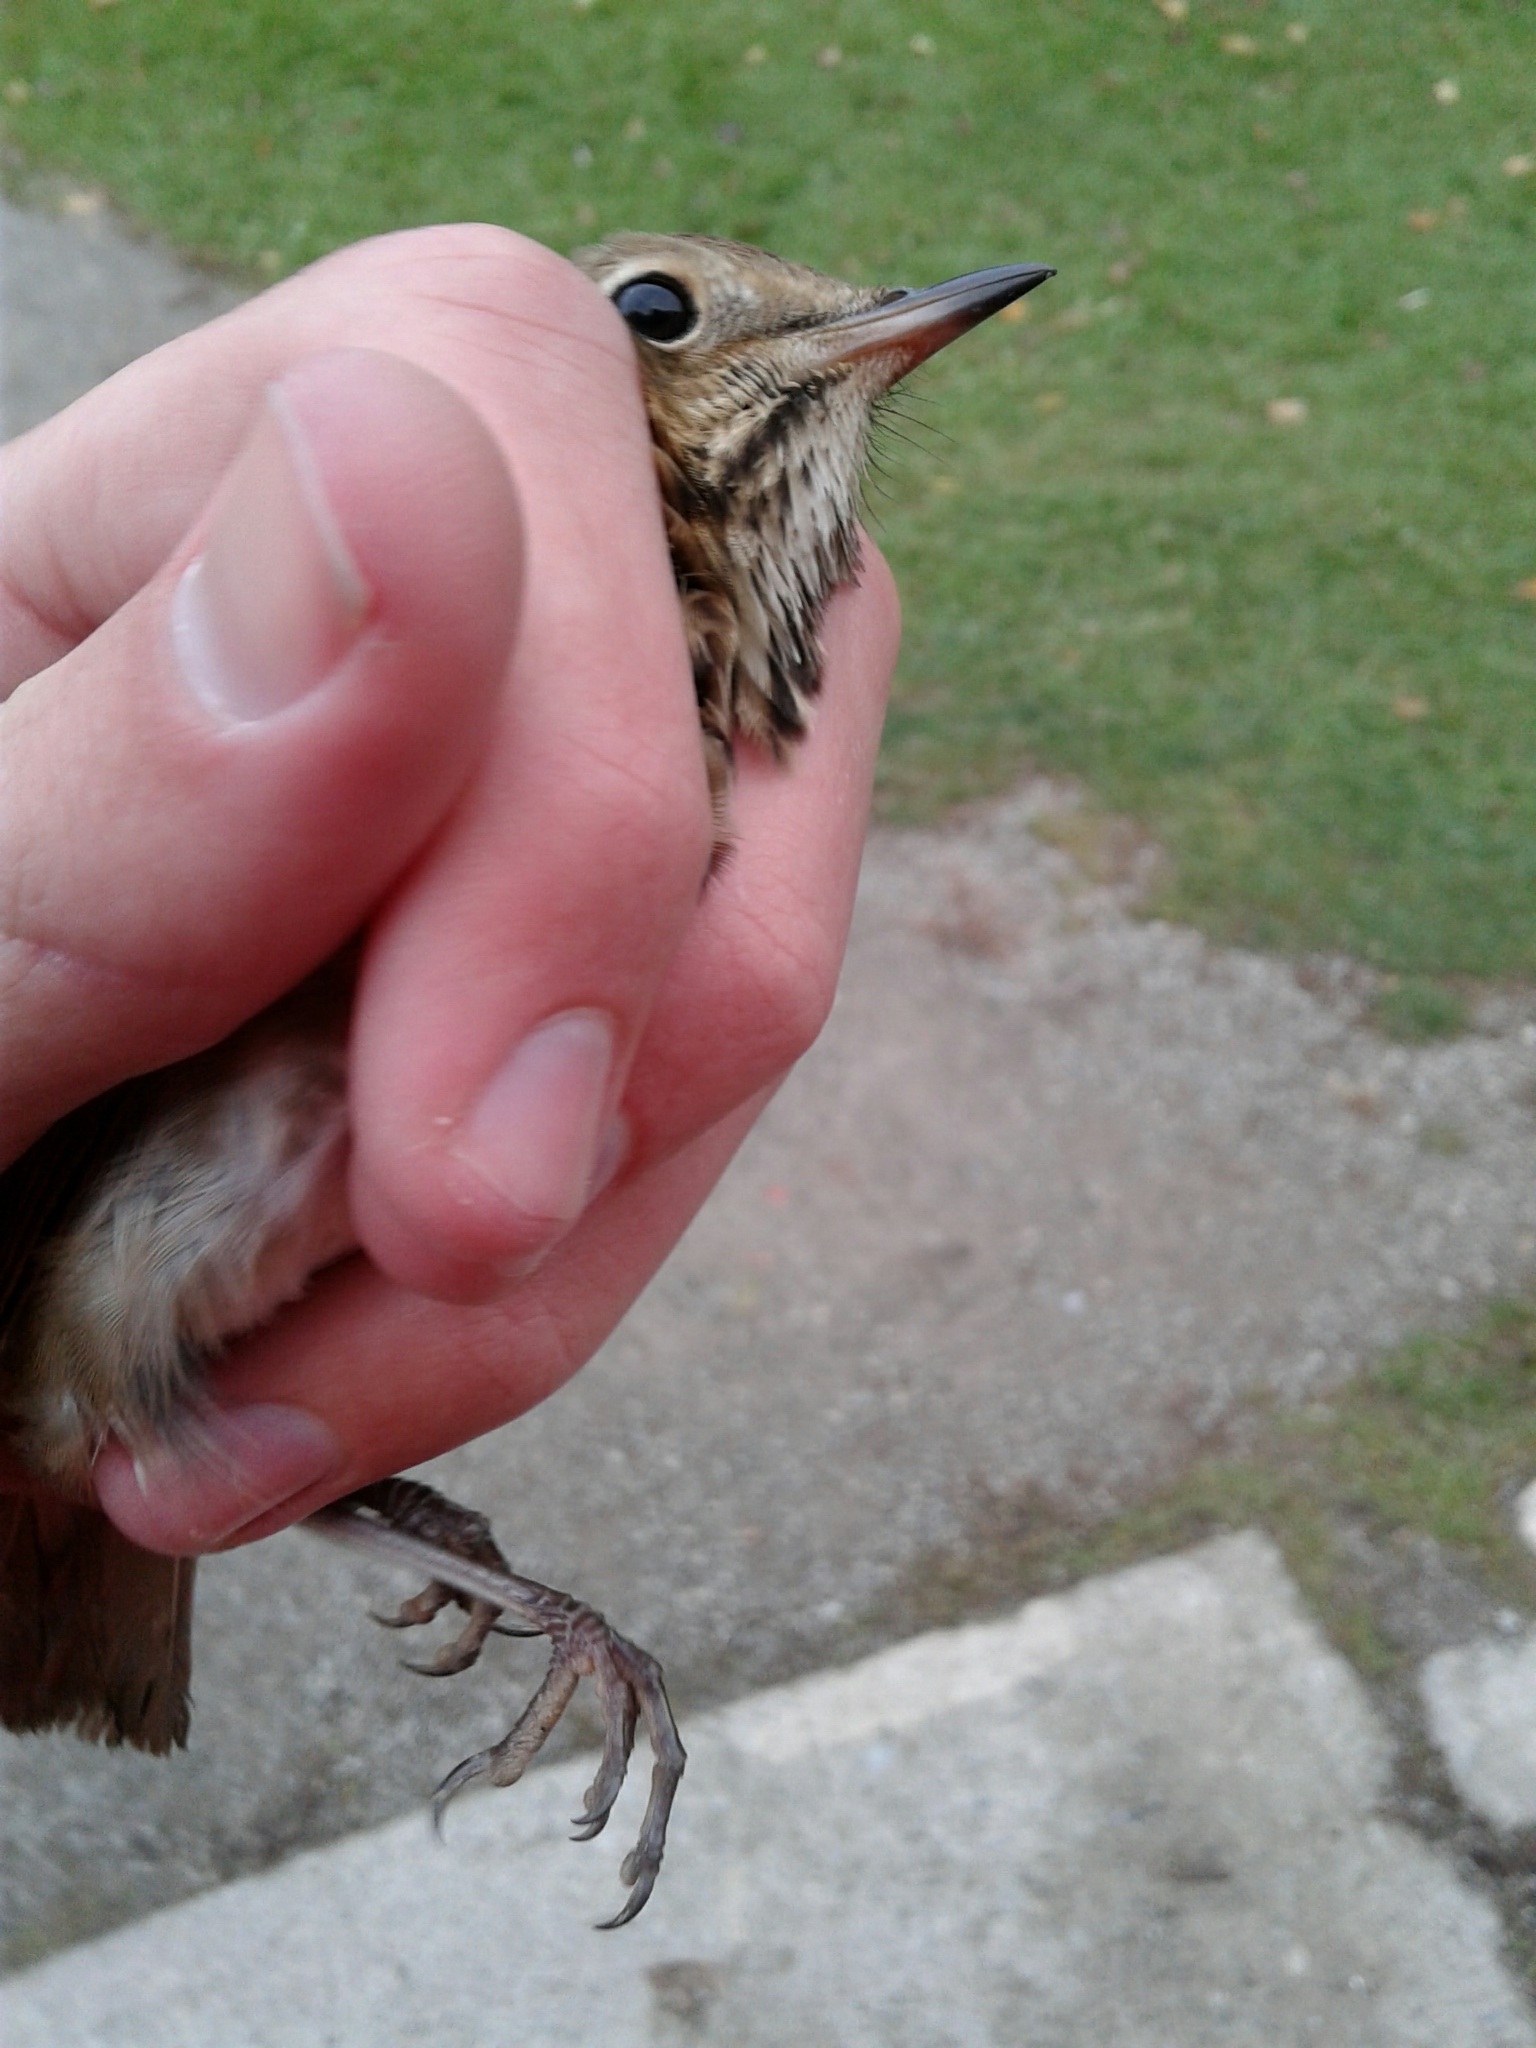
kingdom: Animalia
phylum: Chordata
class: Aves
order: Passeriformes
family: Turdidae
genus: Catharus
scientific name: Catharus guttatus
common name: Hermit thrush
